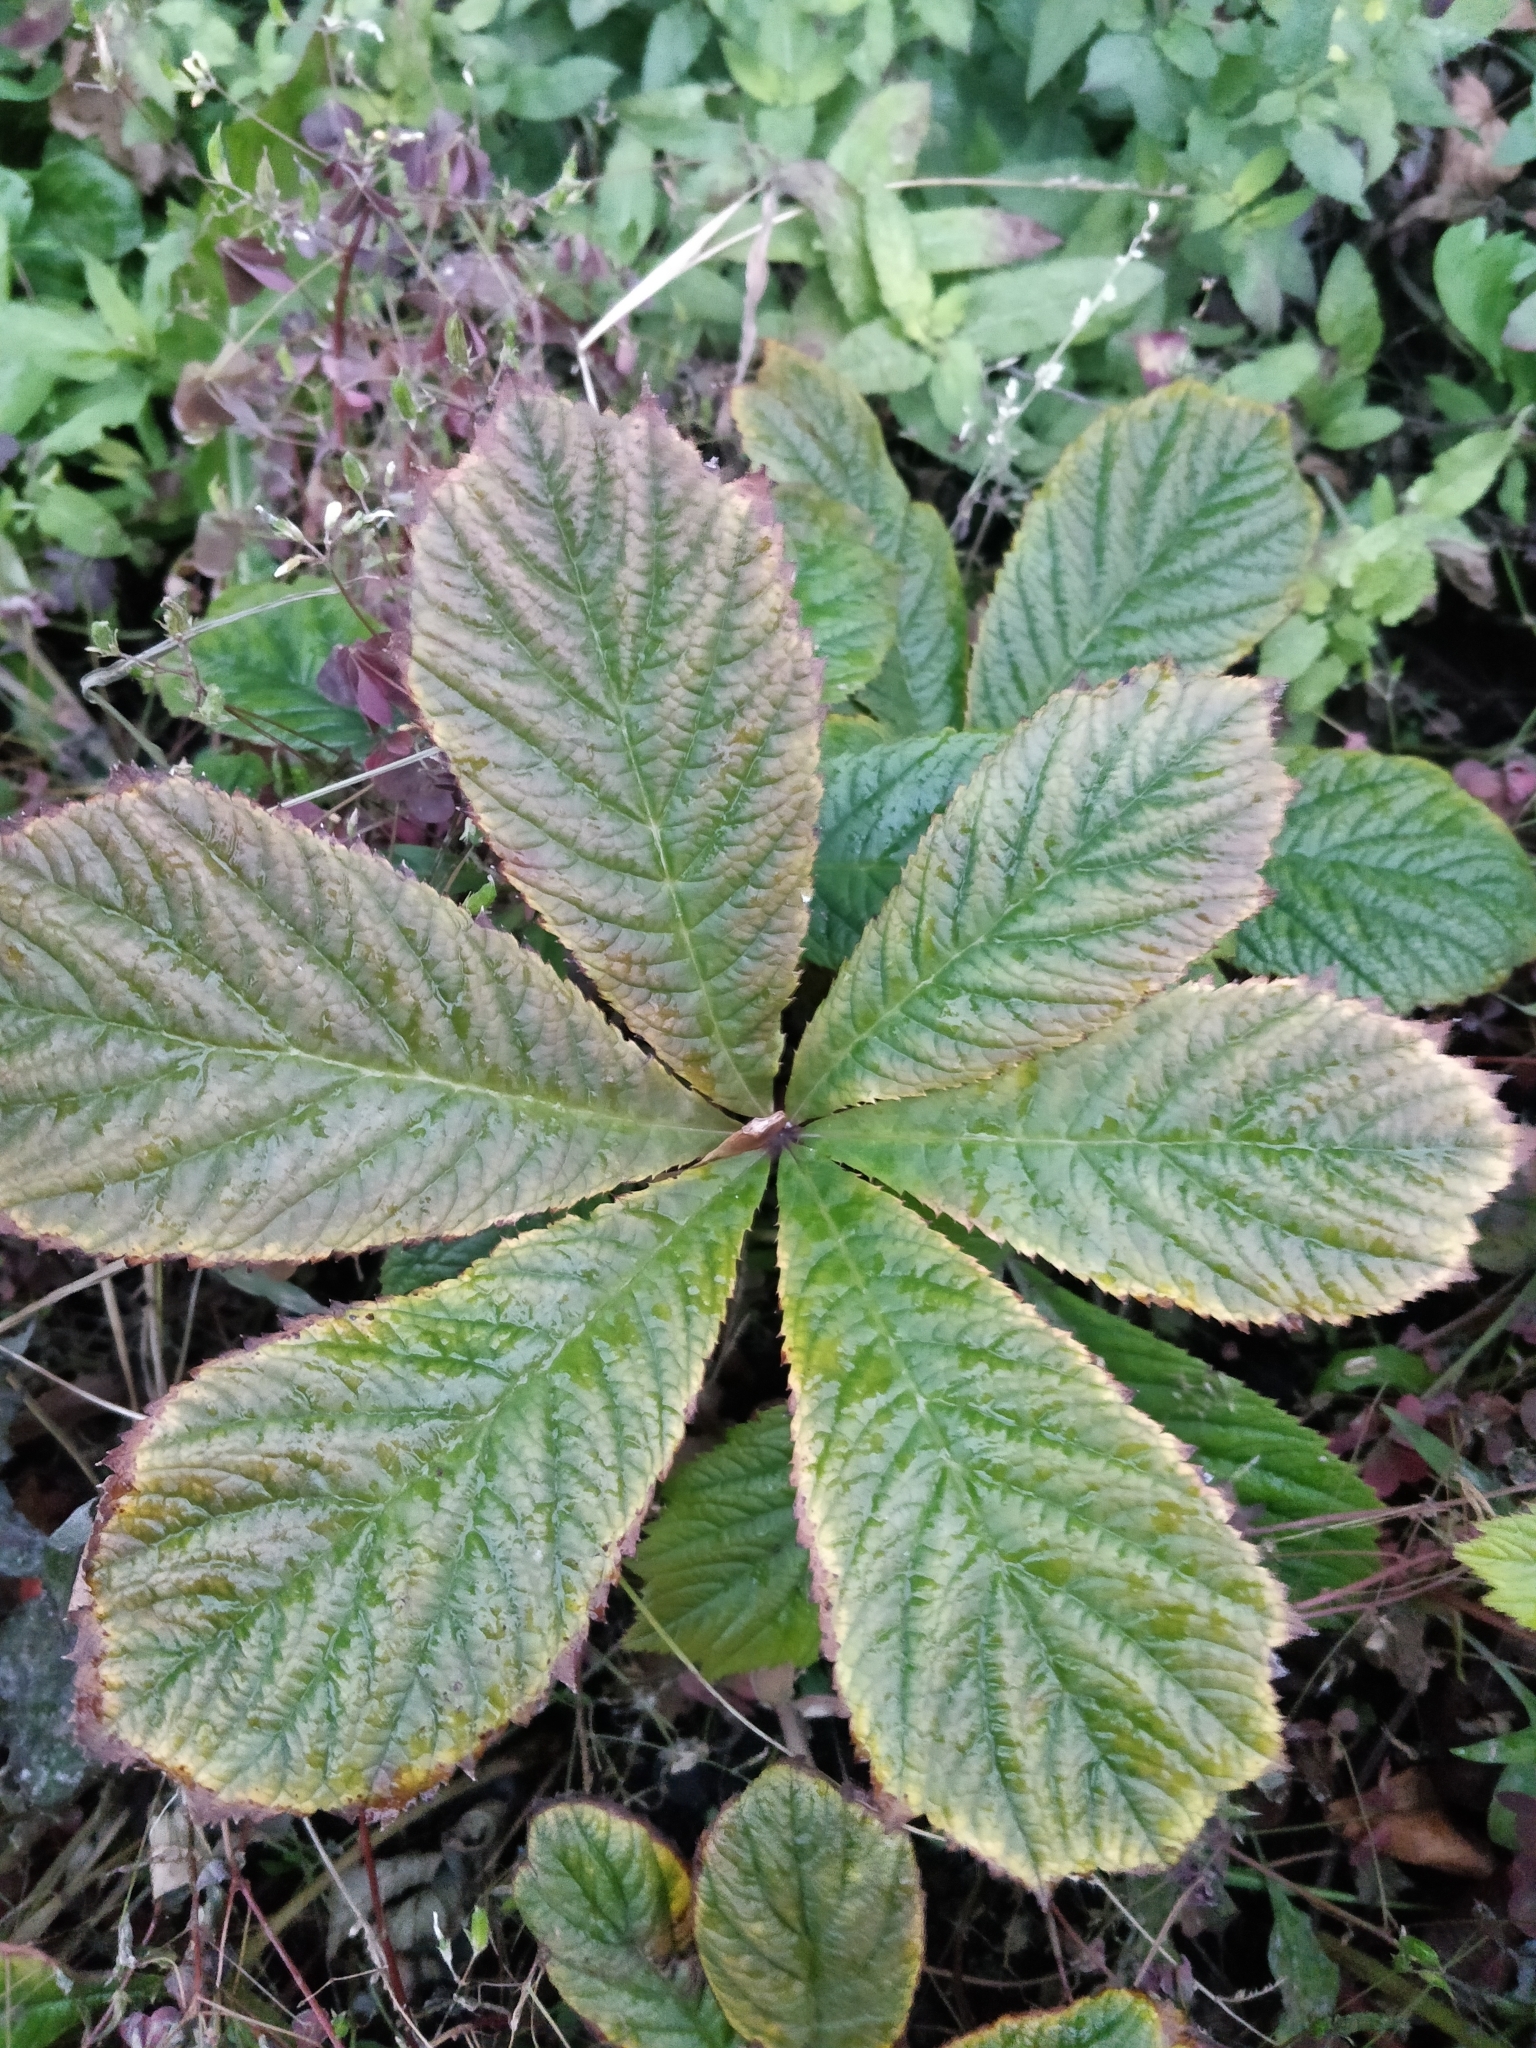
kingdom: Plantae
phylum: Tracheophyta
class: Magnoliopsida
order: Sapindales
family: Sapindaceae
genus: Aesculus
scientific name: Aesculus hippocastanum
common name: Horse-chestnut
